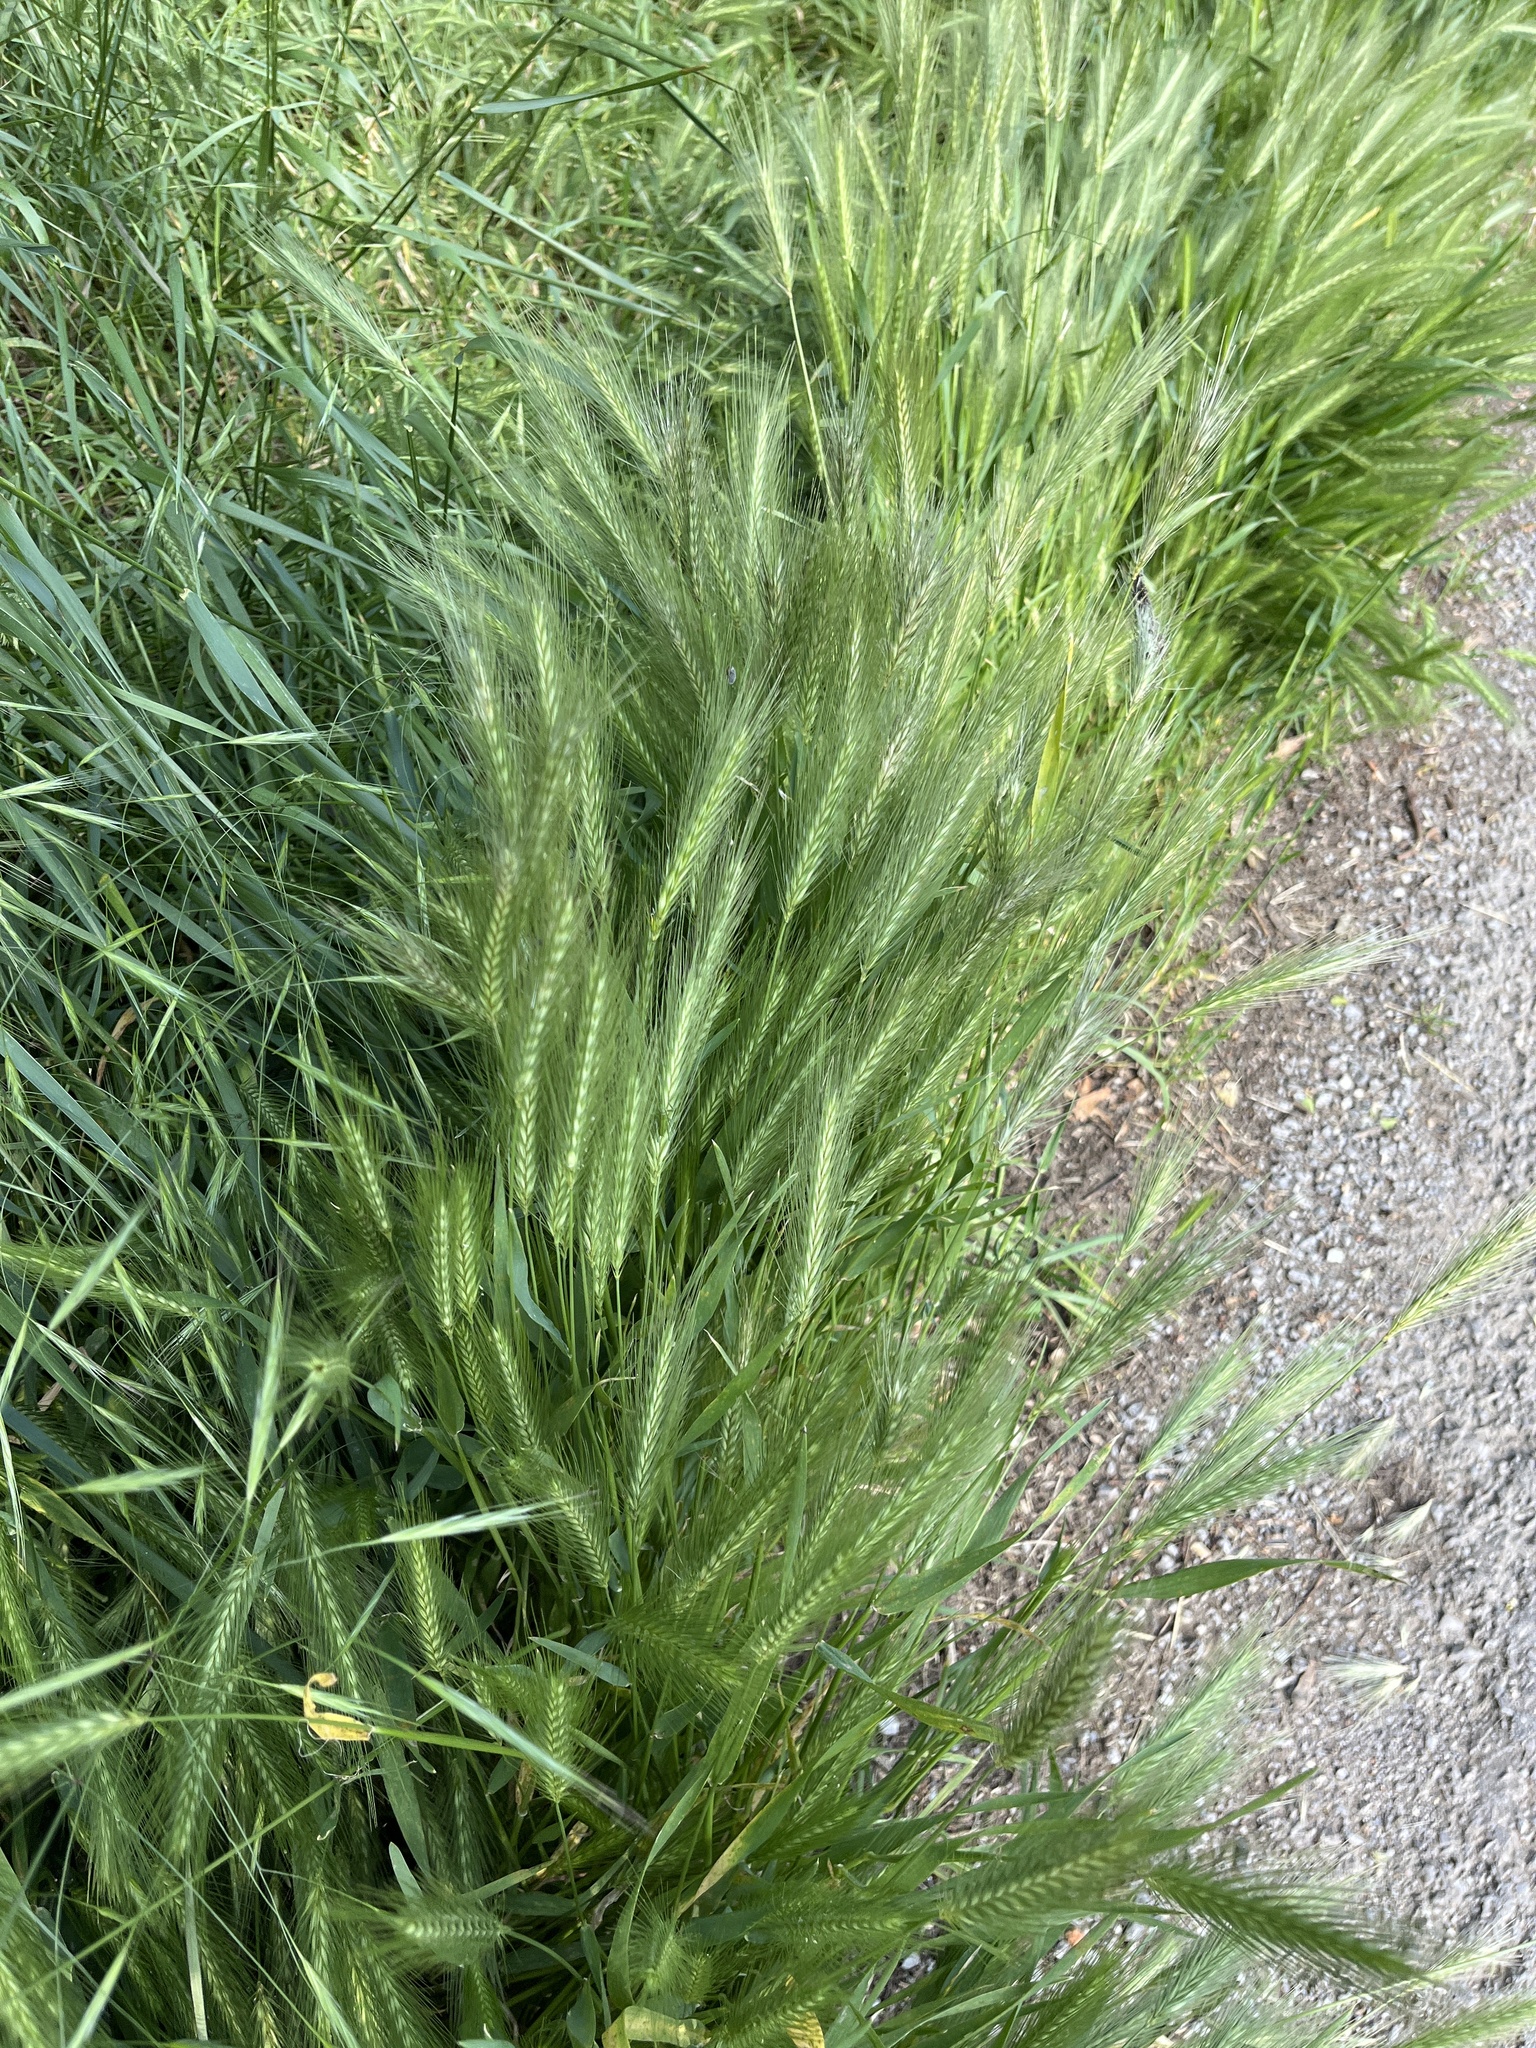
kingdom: Plantae
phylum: Tracheophyta
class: Liliopsida
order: Poales
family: Poaceae
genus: Hordeum
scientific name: Hordeum murinum
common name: Wall barley
